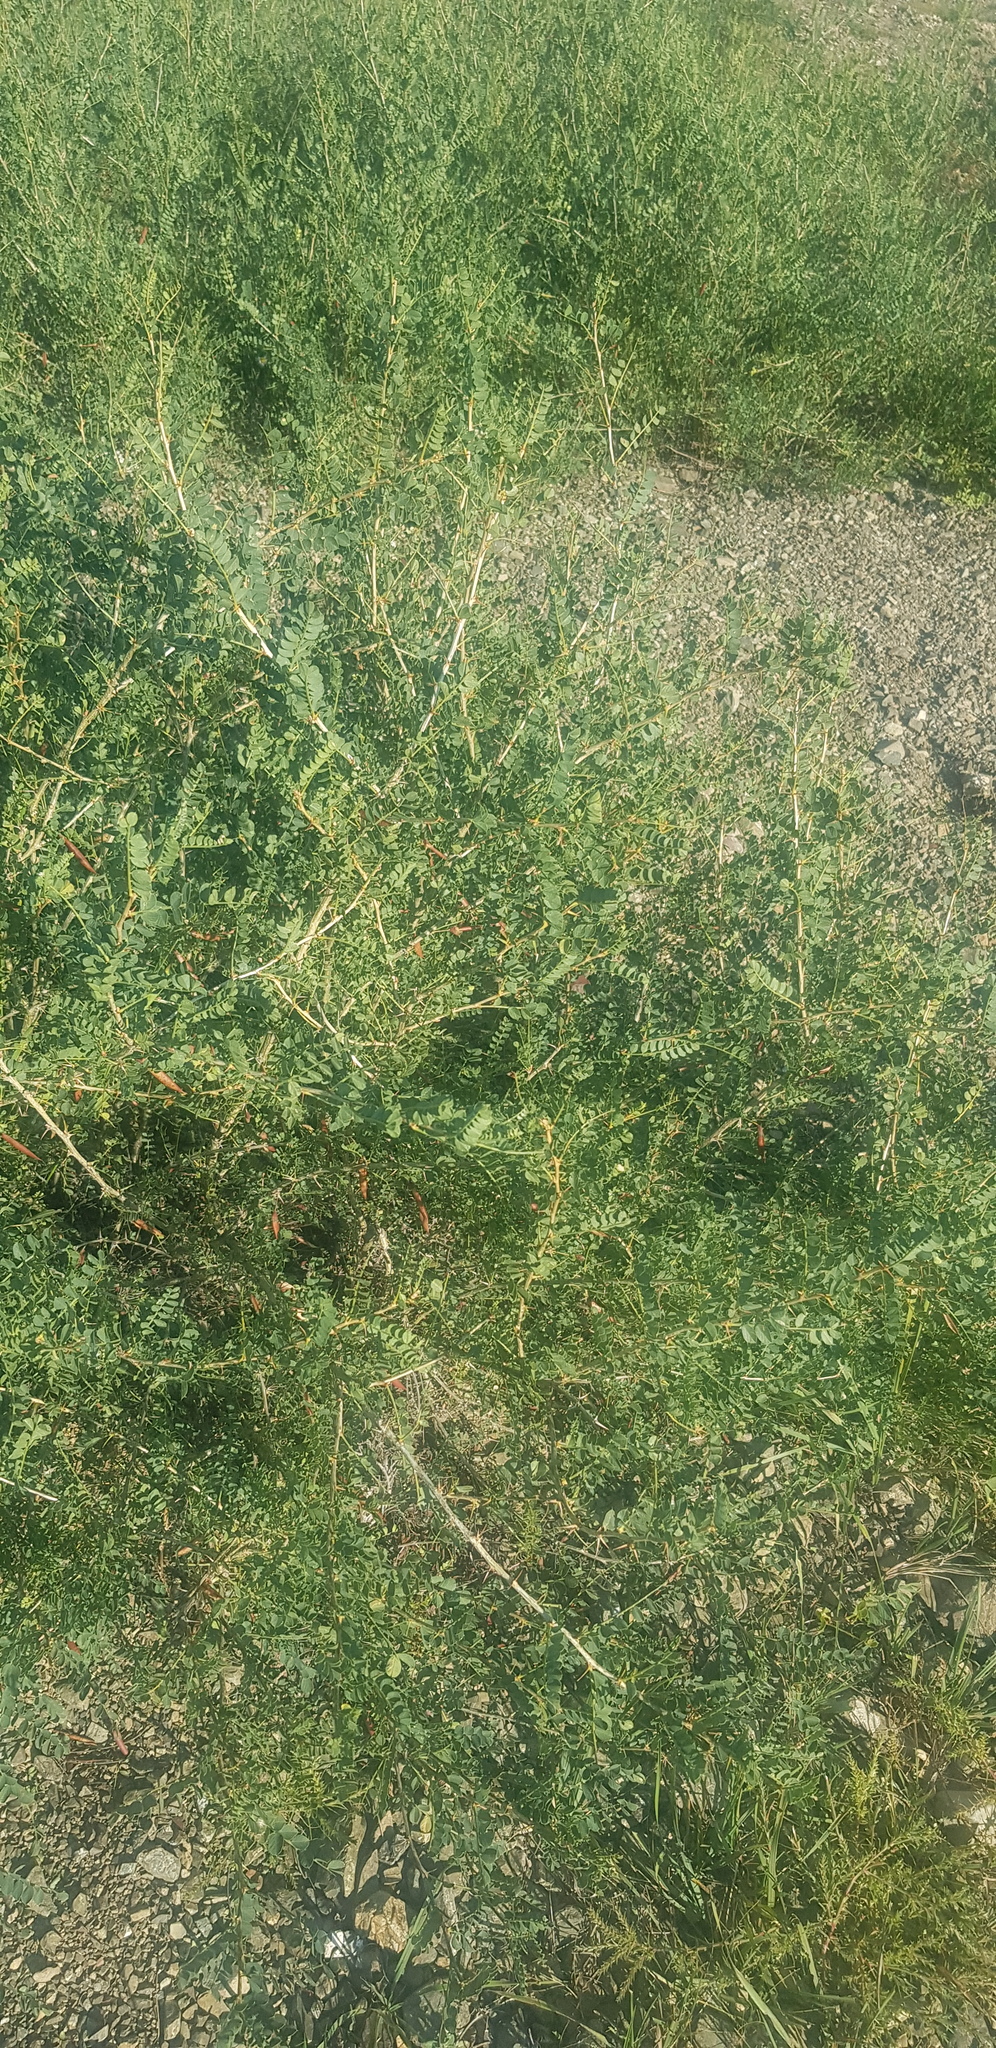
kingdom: Plantae
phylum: Tracheophyta
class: Magnoliopsida
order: Fabales
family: Fabaceae
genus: Caragana
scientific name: Caragana microphylla
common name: Littleleaf peashrub
